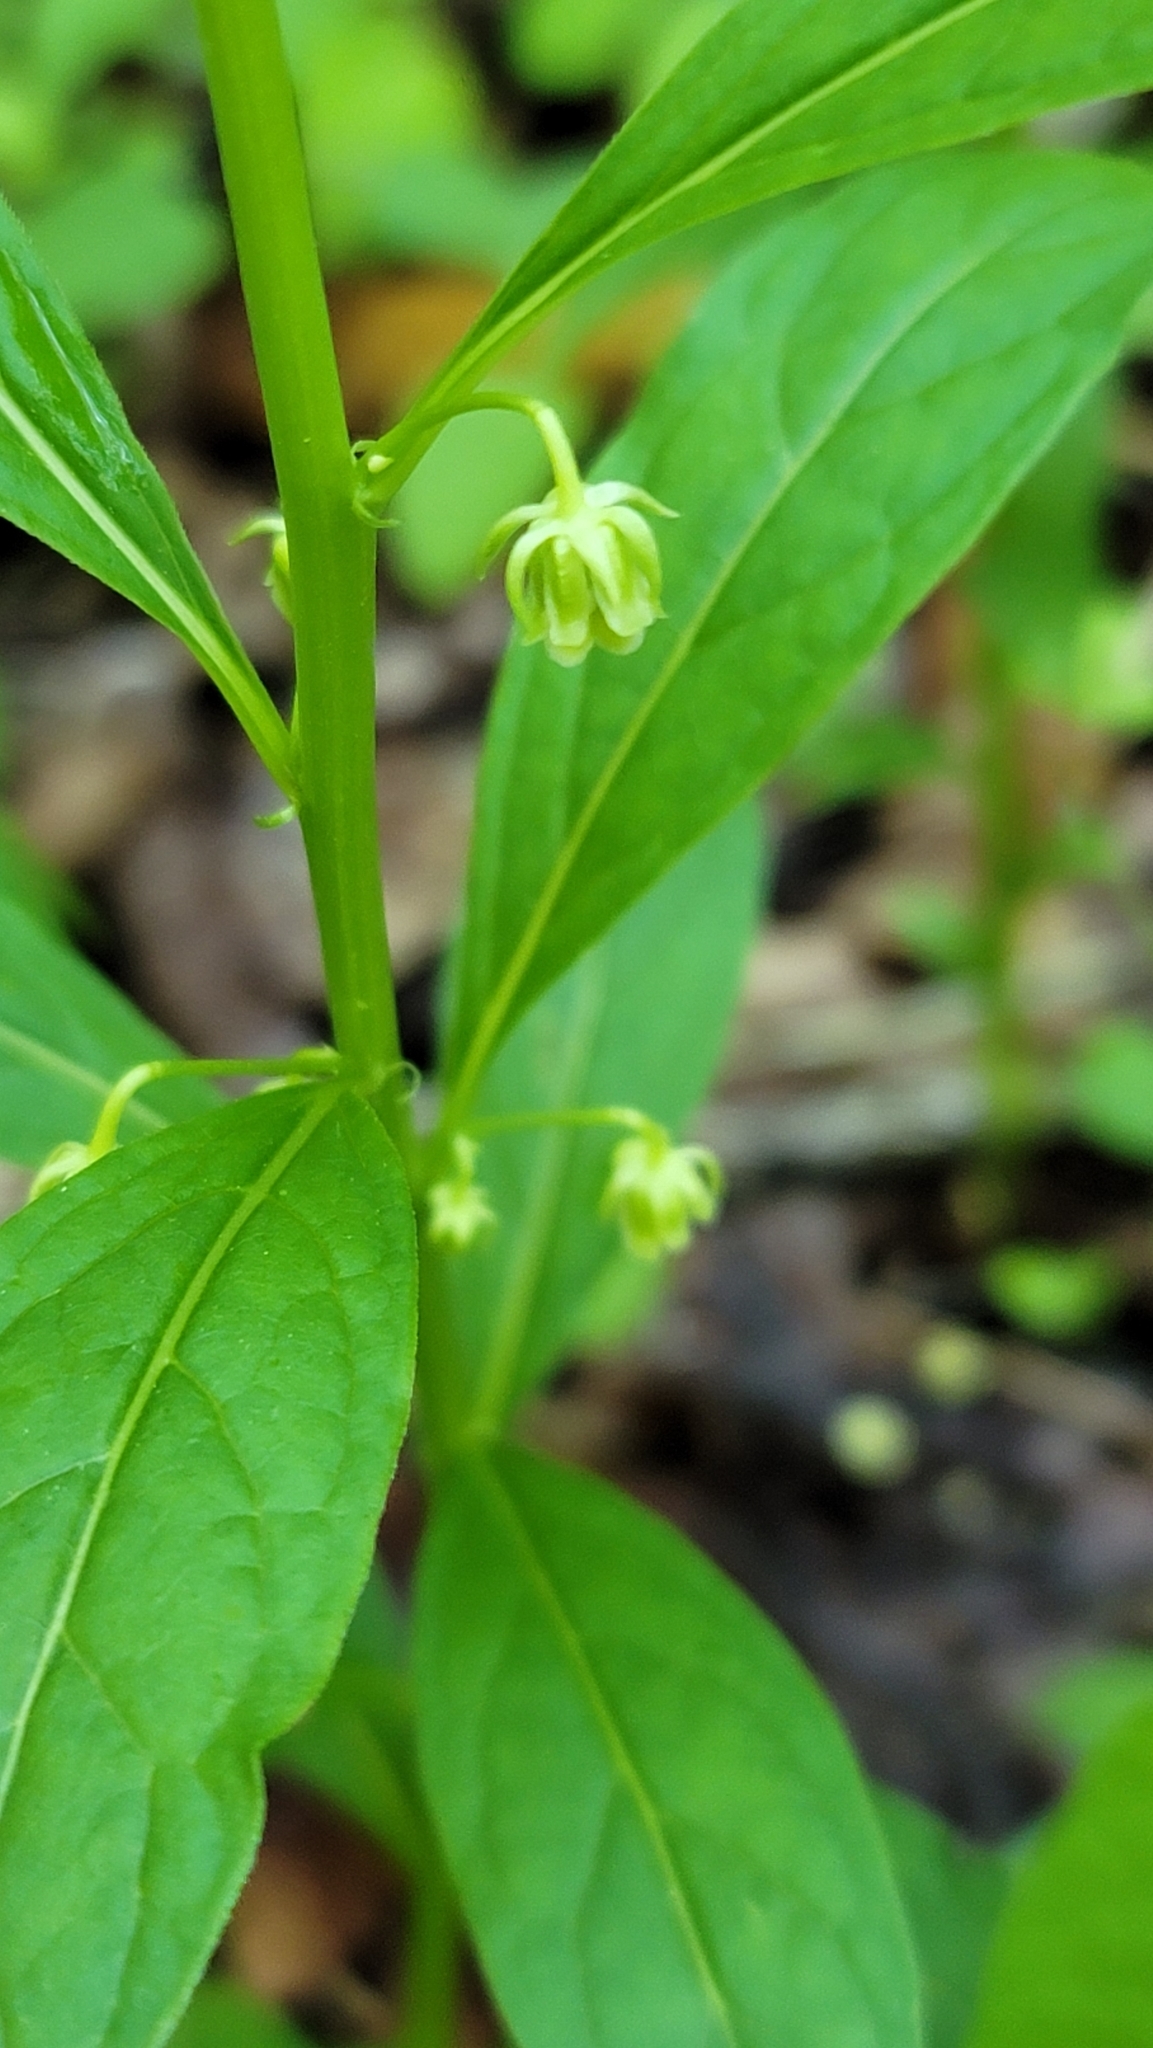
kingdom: Plantae
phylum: Tracheophyta
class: Magnoliopsida
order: Malpighiales
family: Violaceae
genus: Cubelium
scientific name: Cubelium concolor
